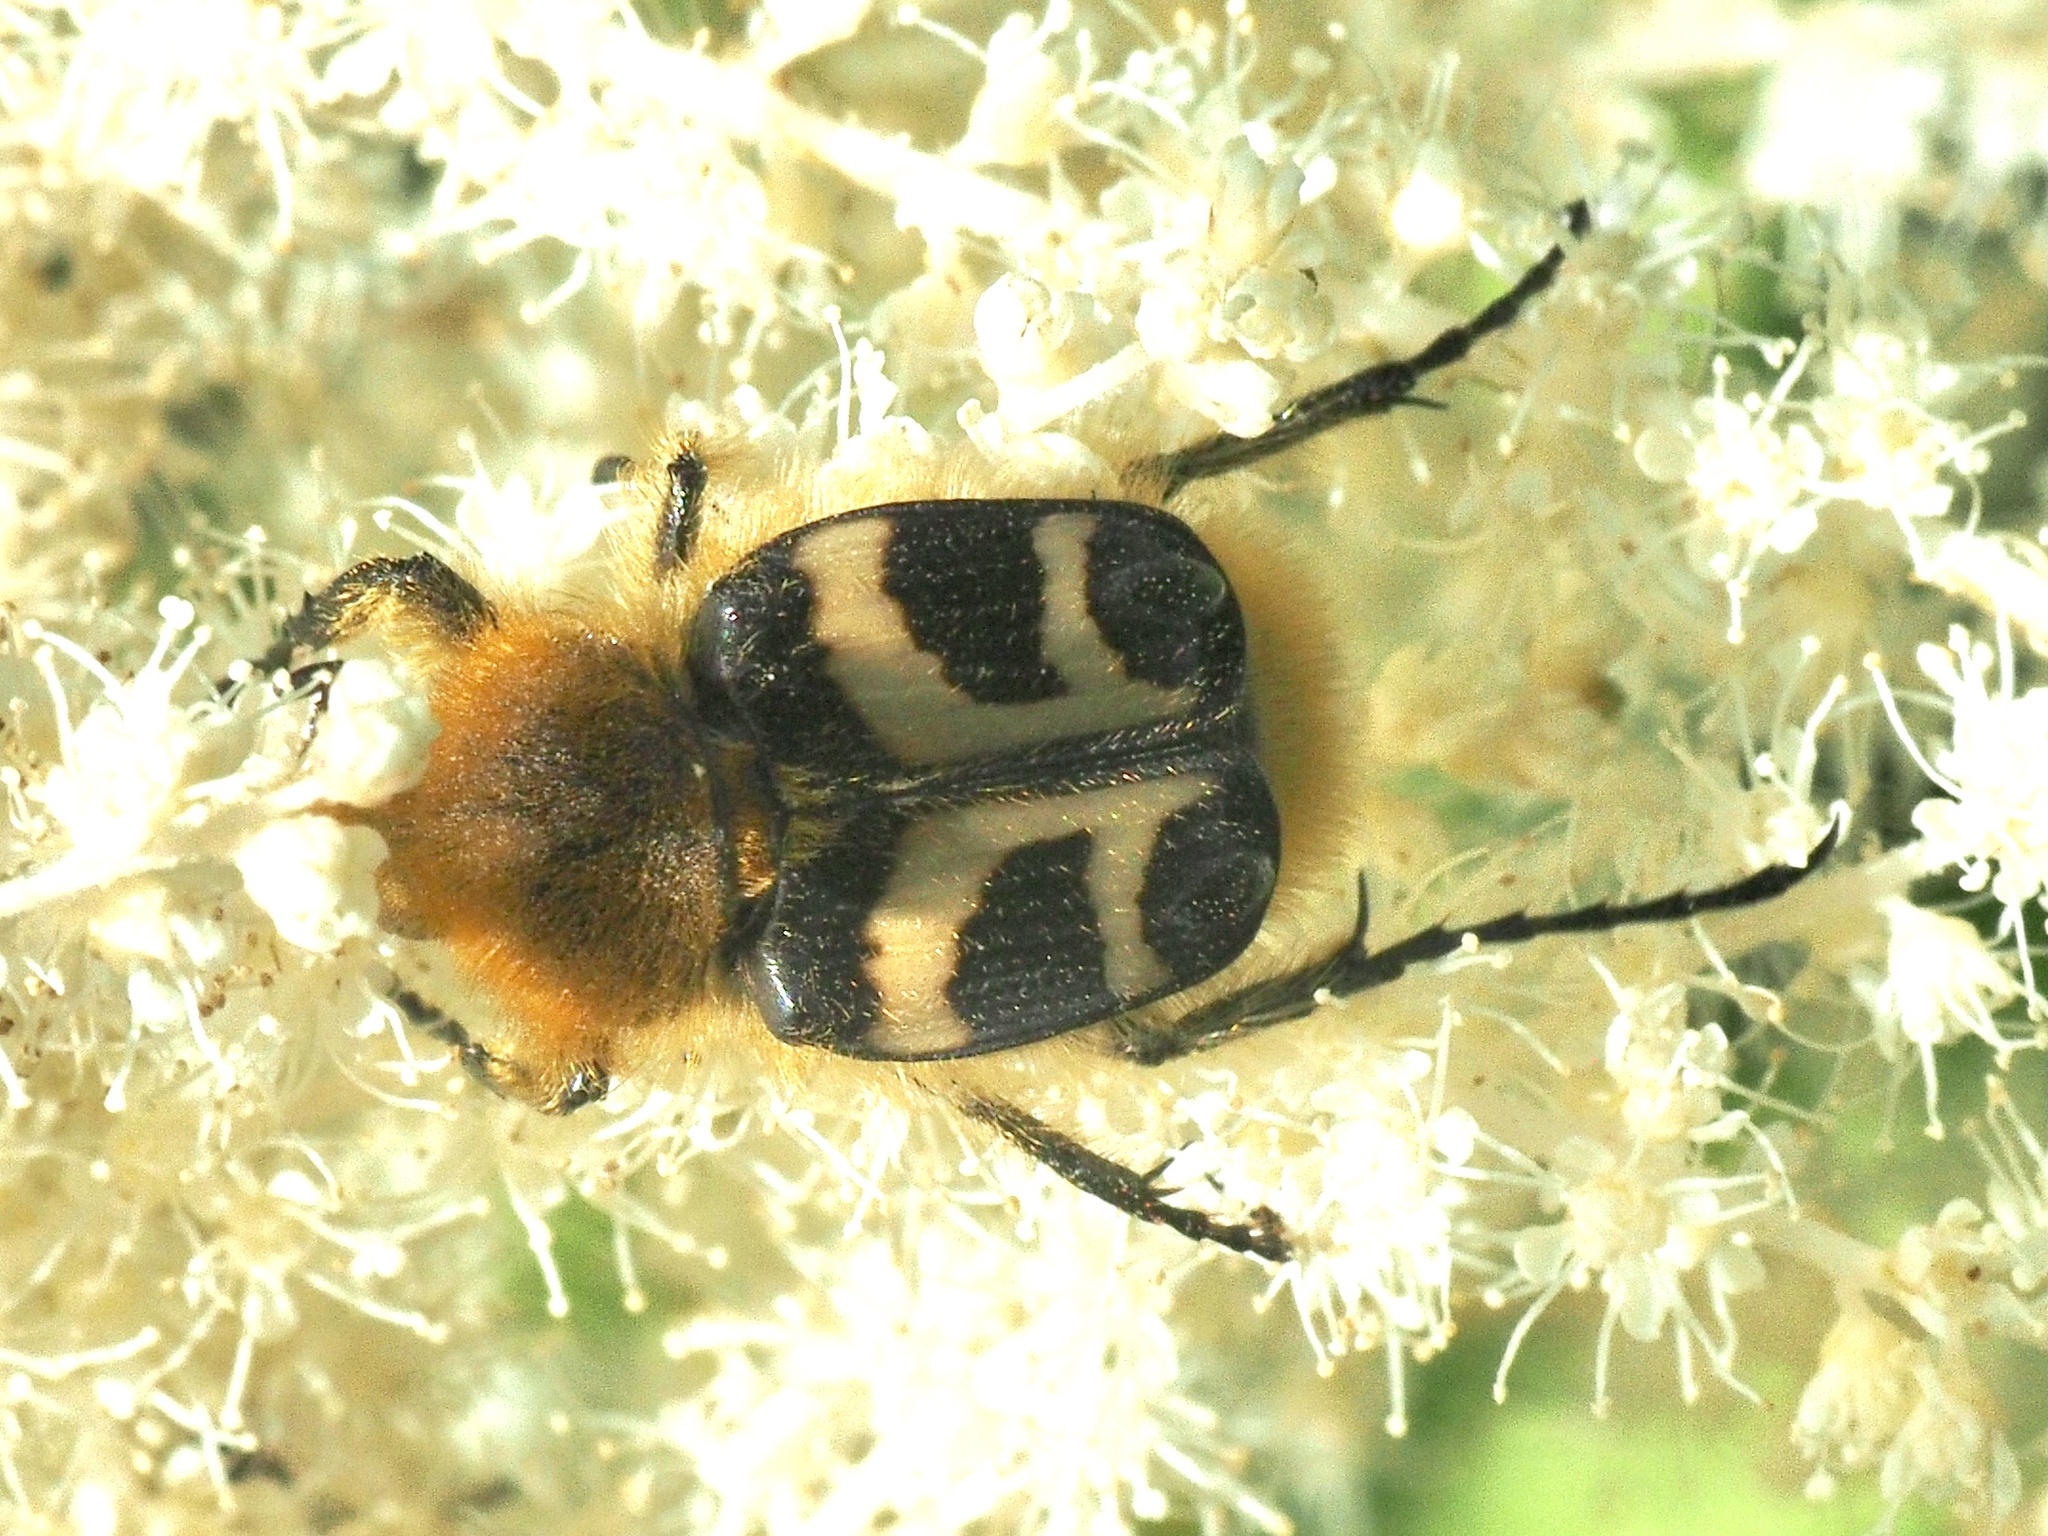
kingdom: Animalia
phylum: Arthropoda
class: Insecta
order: Coleoptera
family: Scarabaeidae
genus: Trichius
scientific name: Trichius fasciatus
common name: Bee beetle
